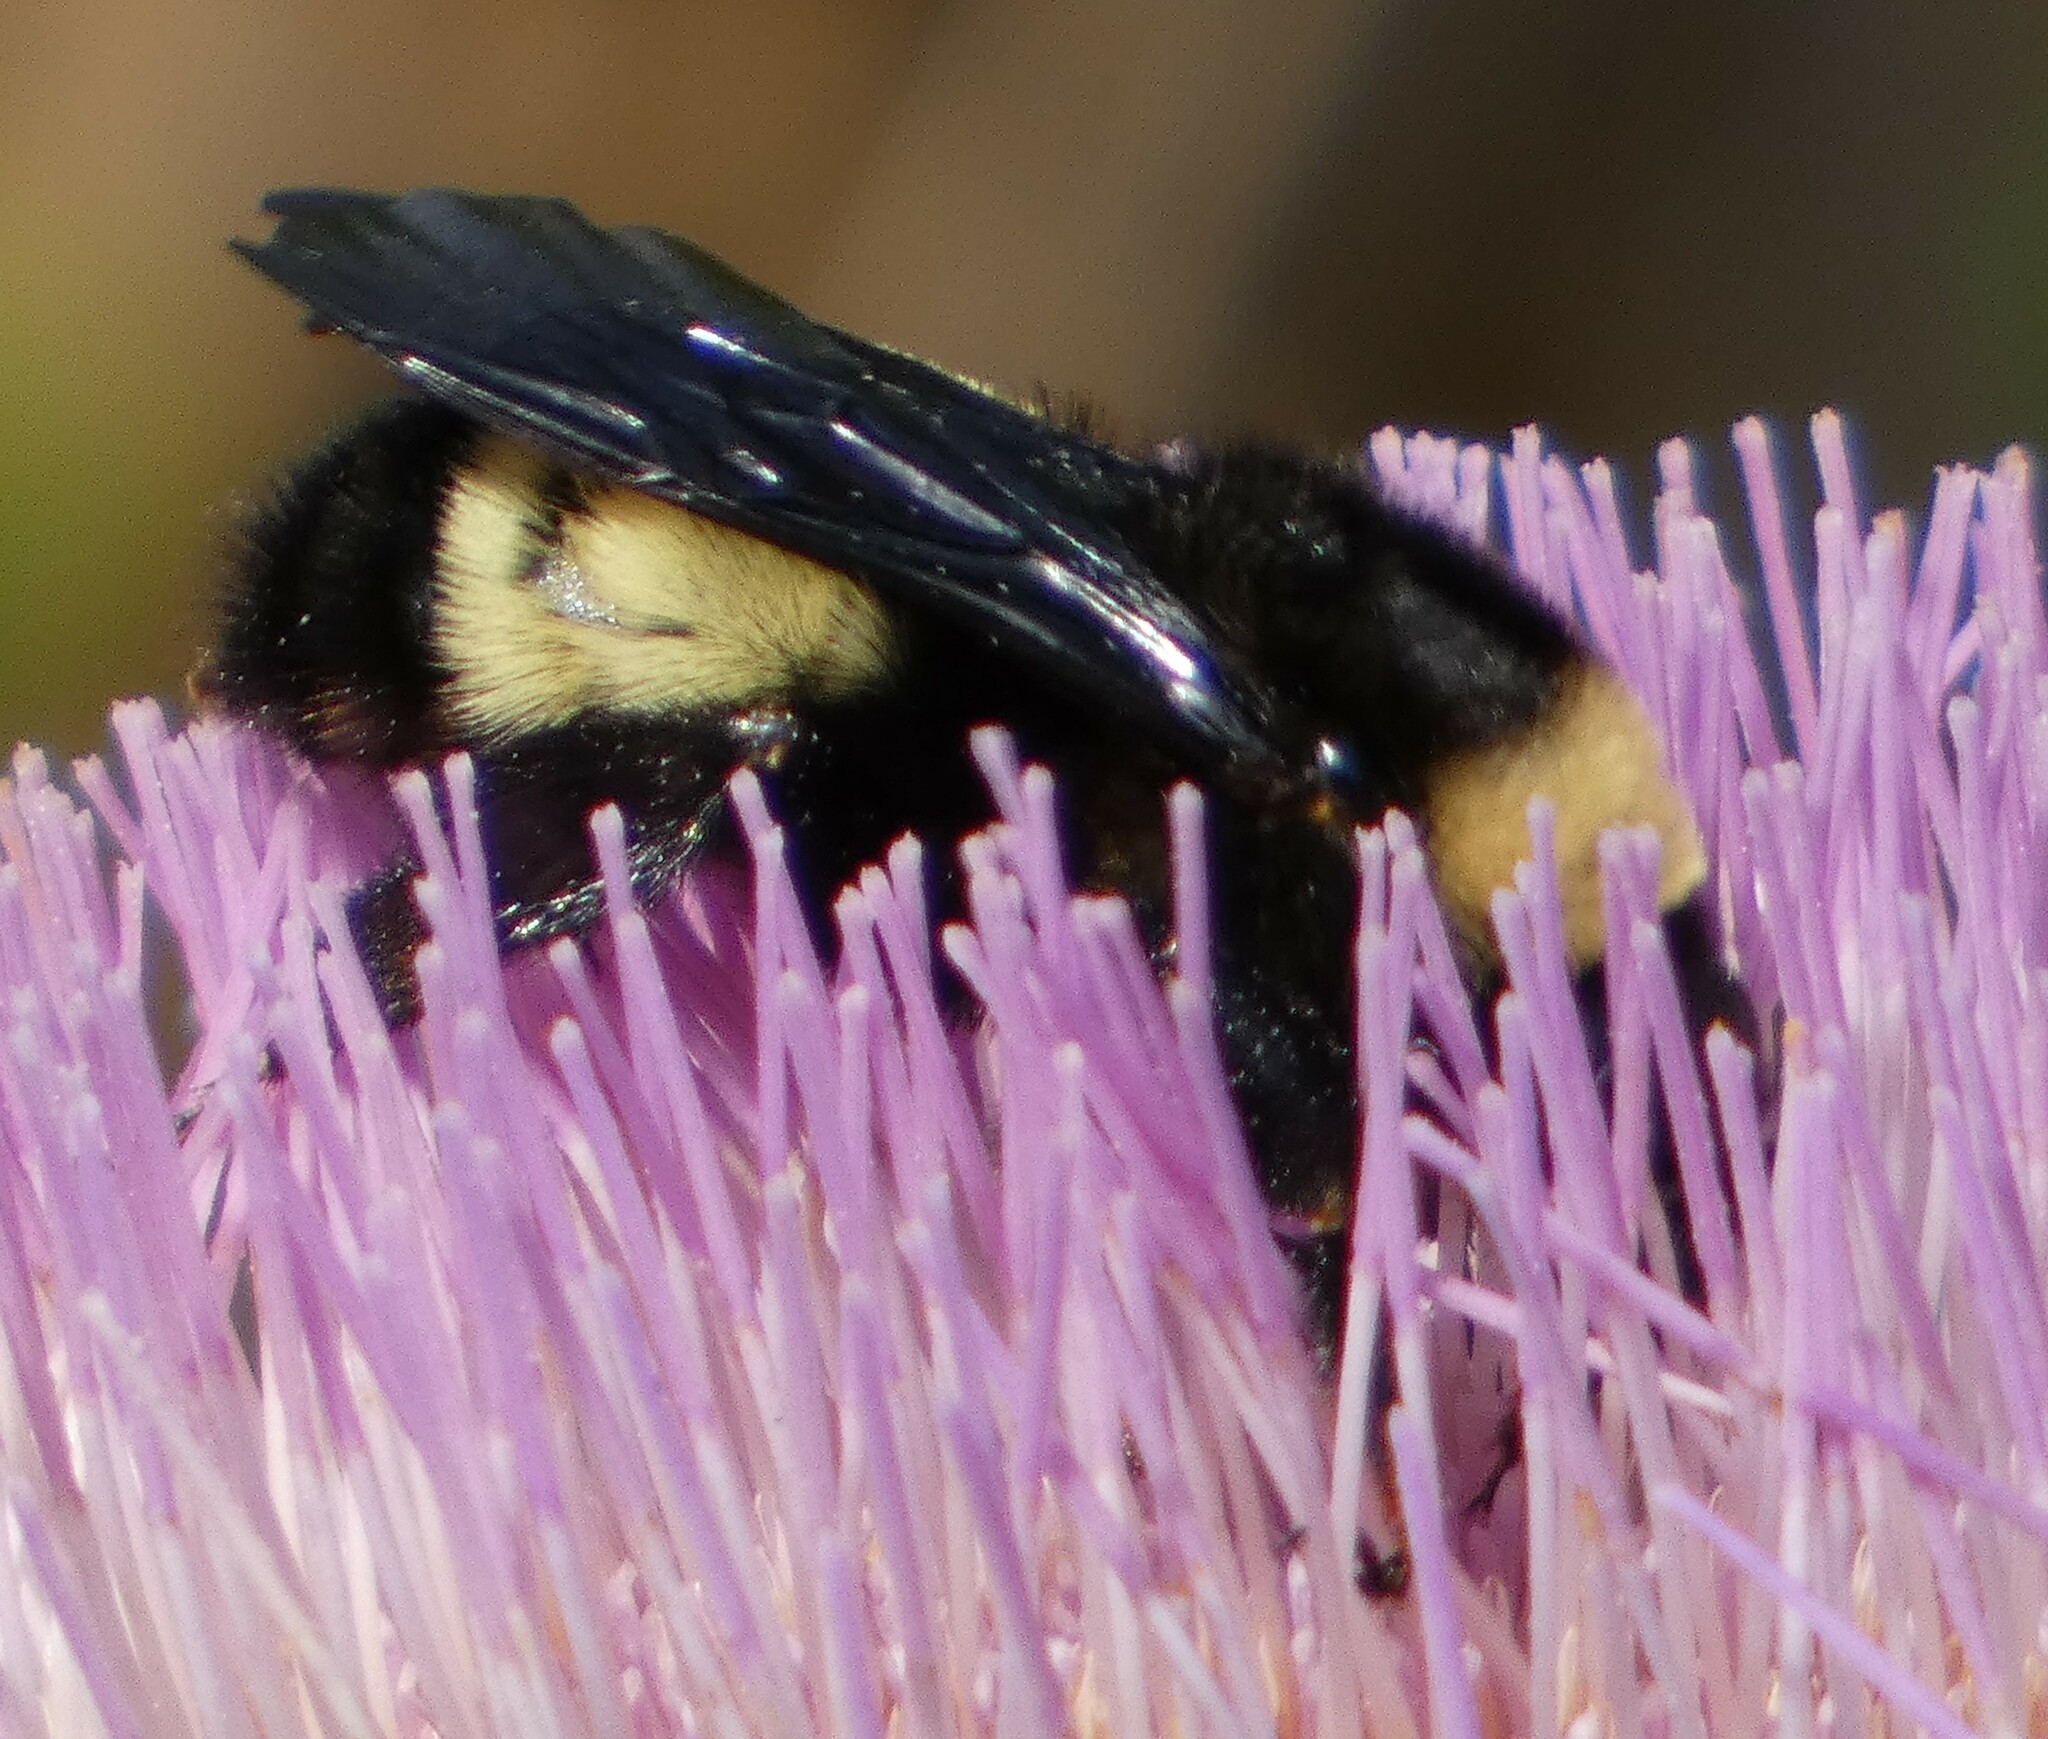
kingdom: Animalia
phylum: Arthropoda
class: Insecta
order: Hymenoptera
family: Apidae
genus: Bombus
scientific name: Bombus pensylvanicus
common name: Bumble bee
